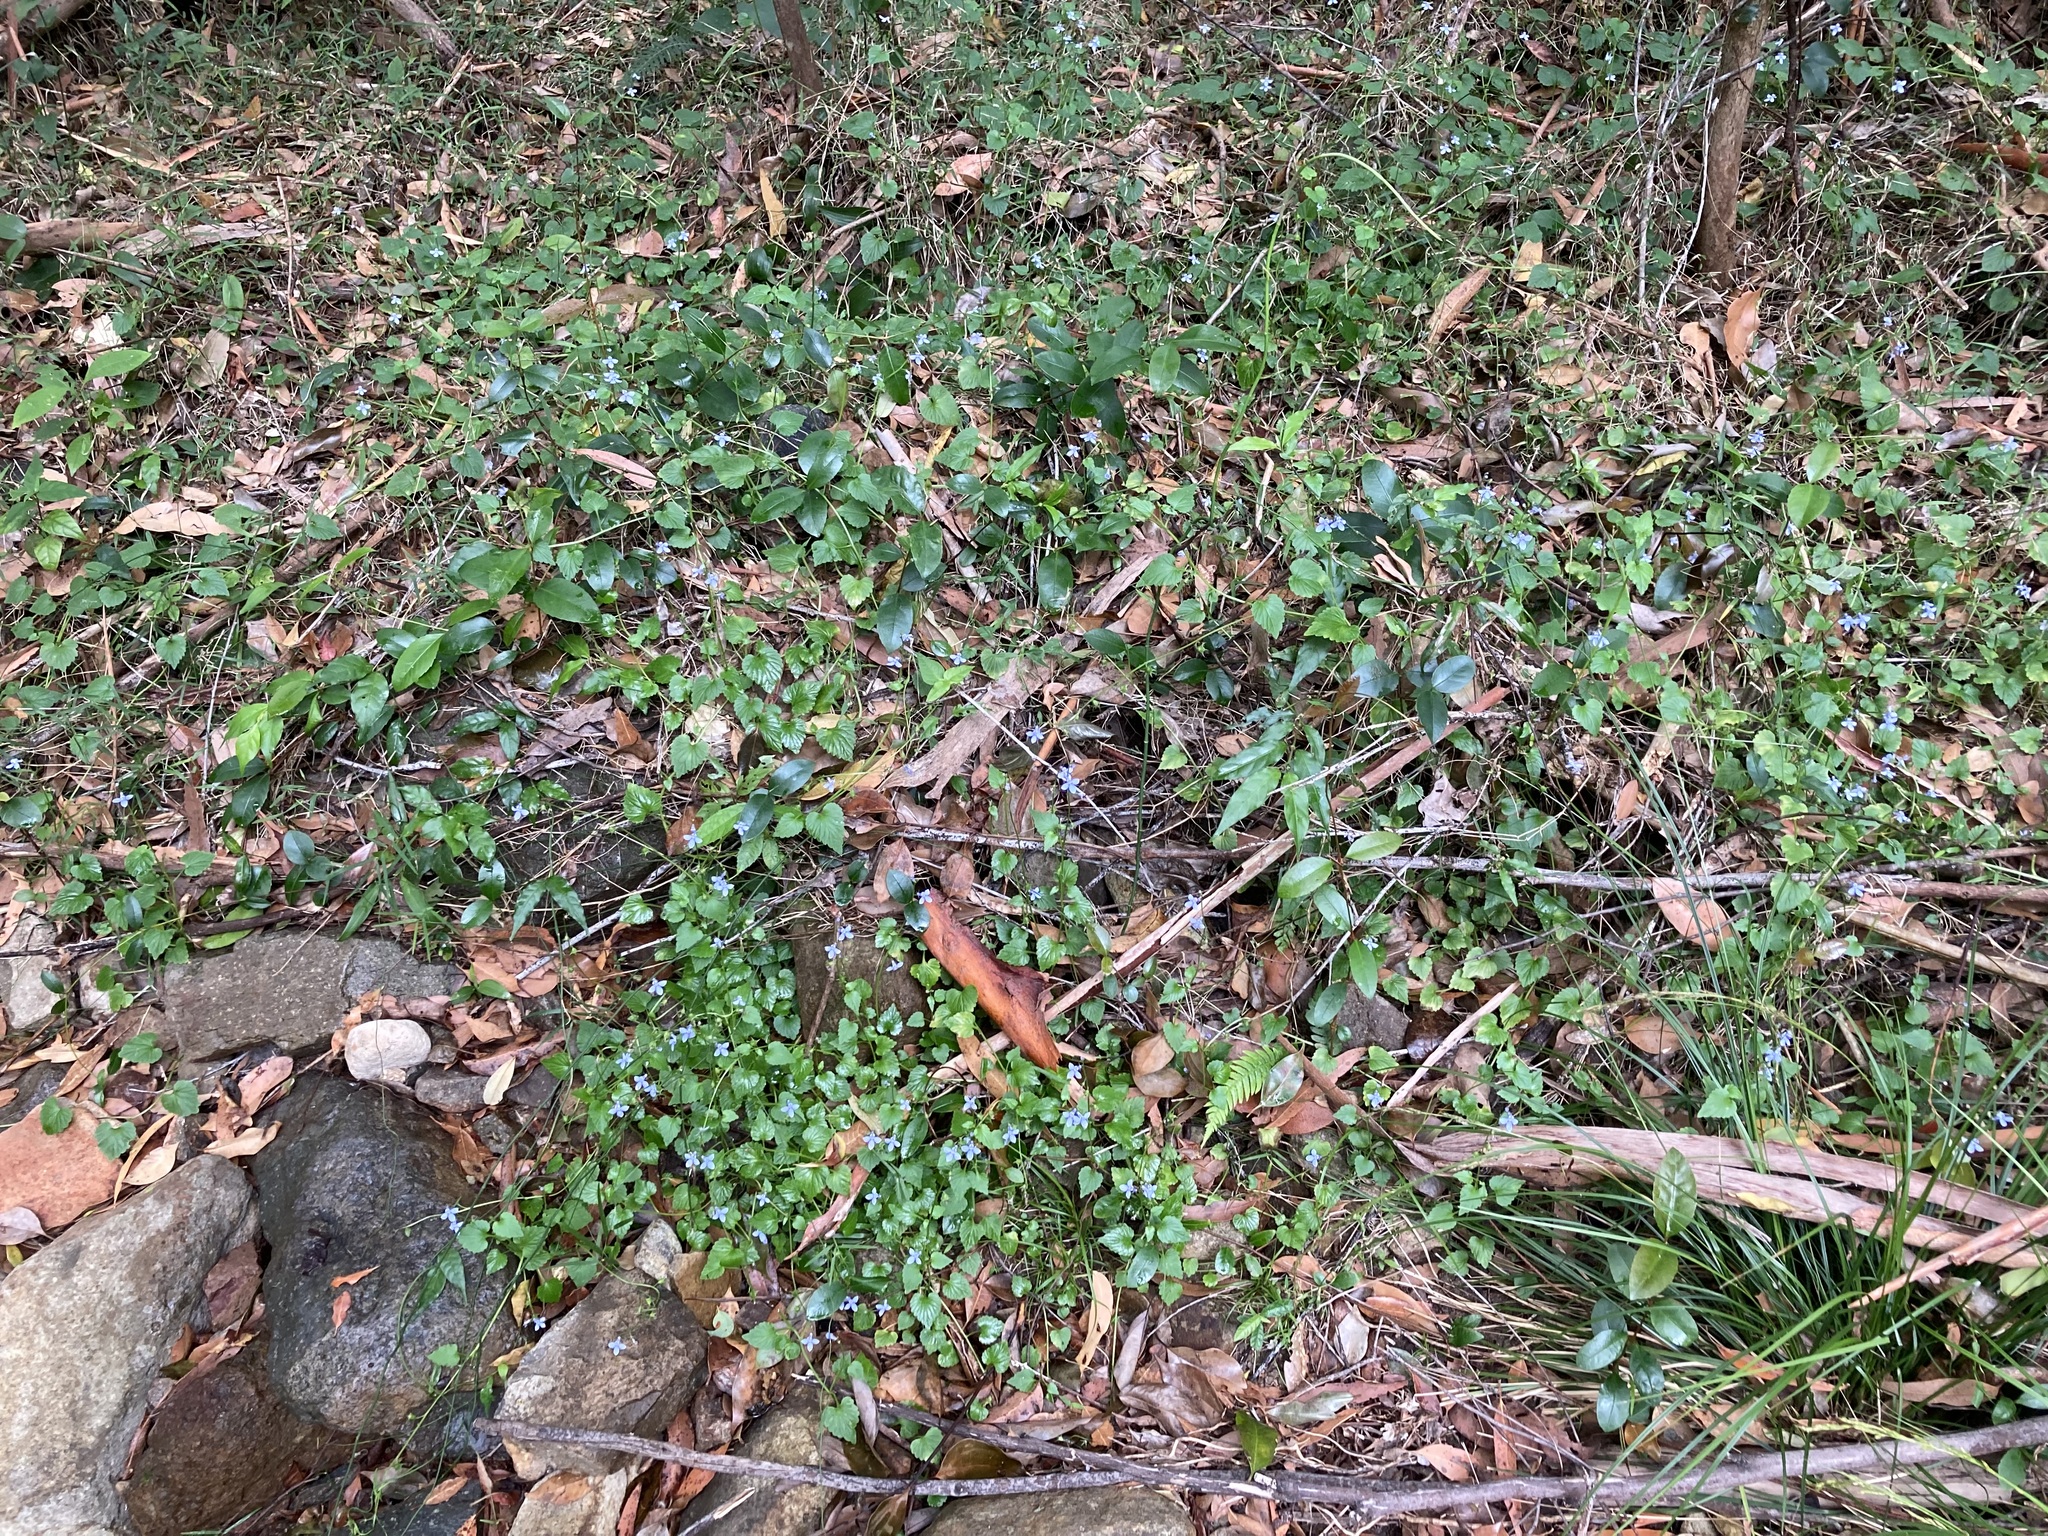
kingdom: Plantae
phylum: Tracheophyta
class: Magnoliopsida
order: Asterales
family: Campanulaceae
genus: Lobelia
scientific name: Lobelia trigonocaulis
